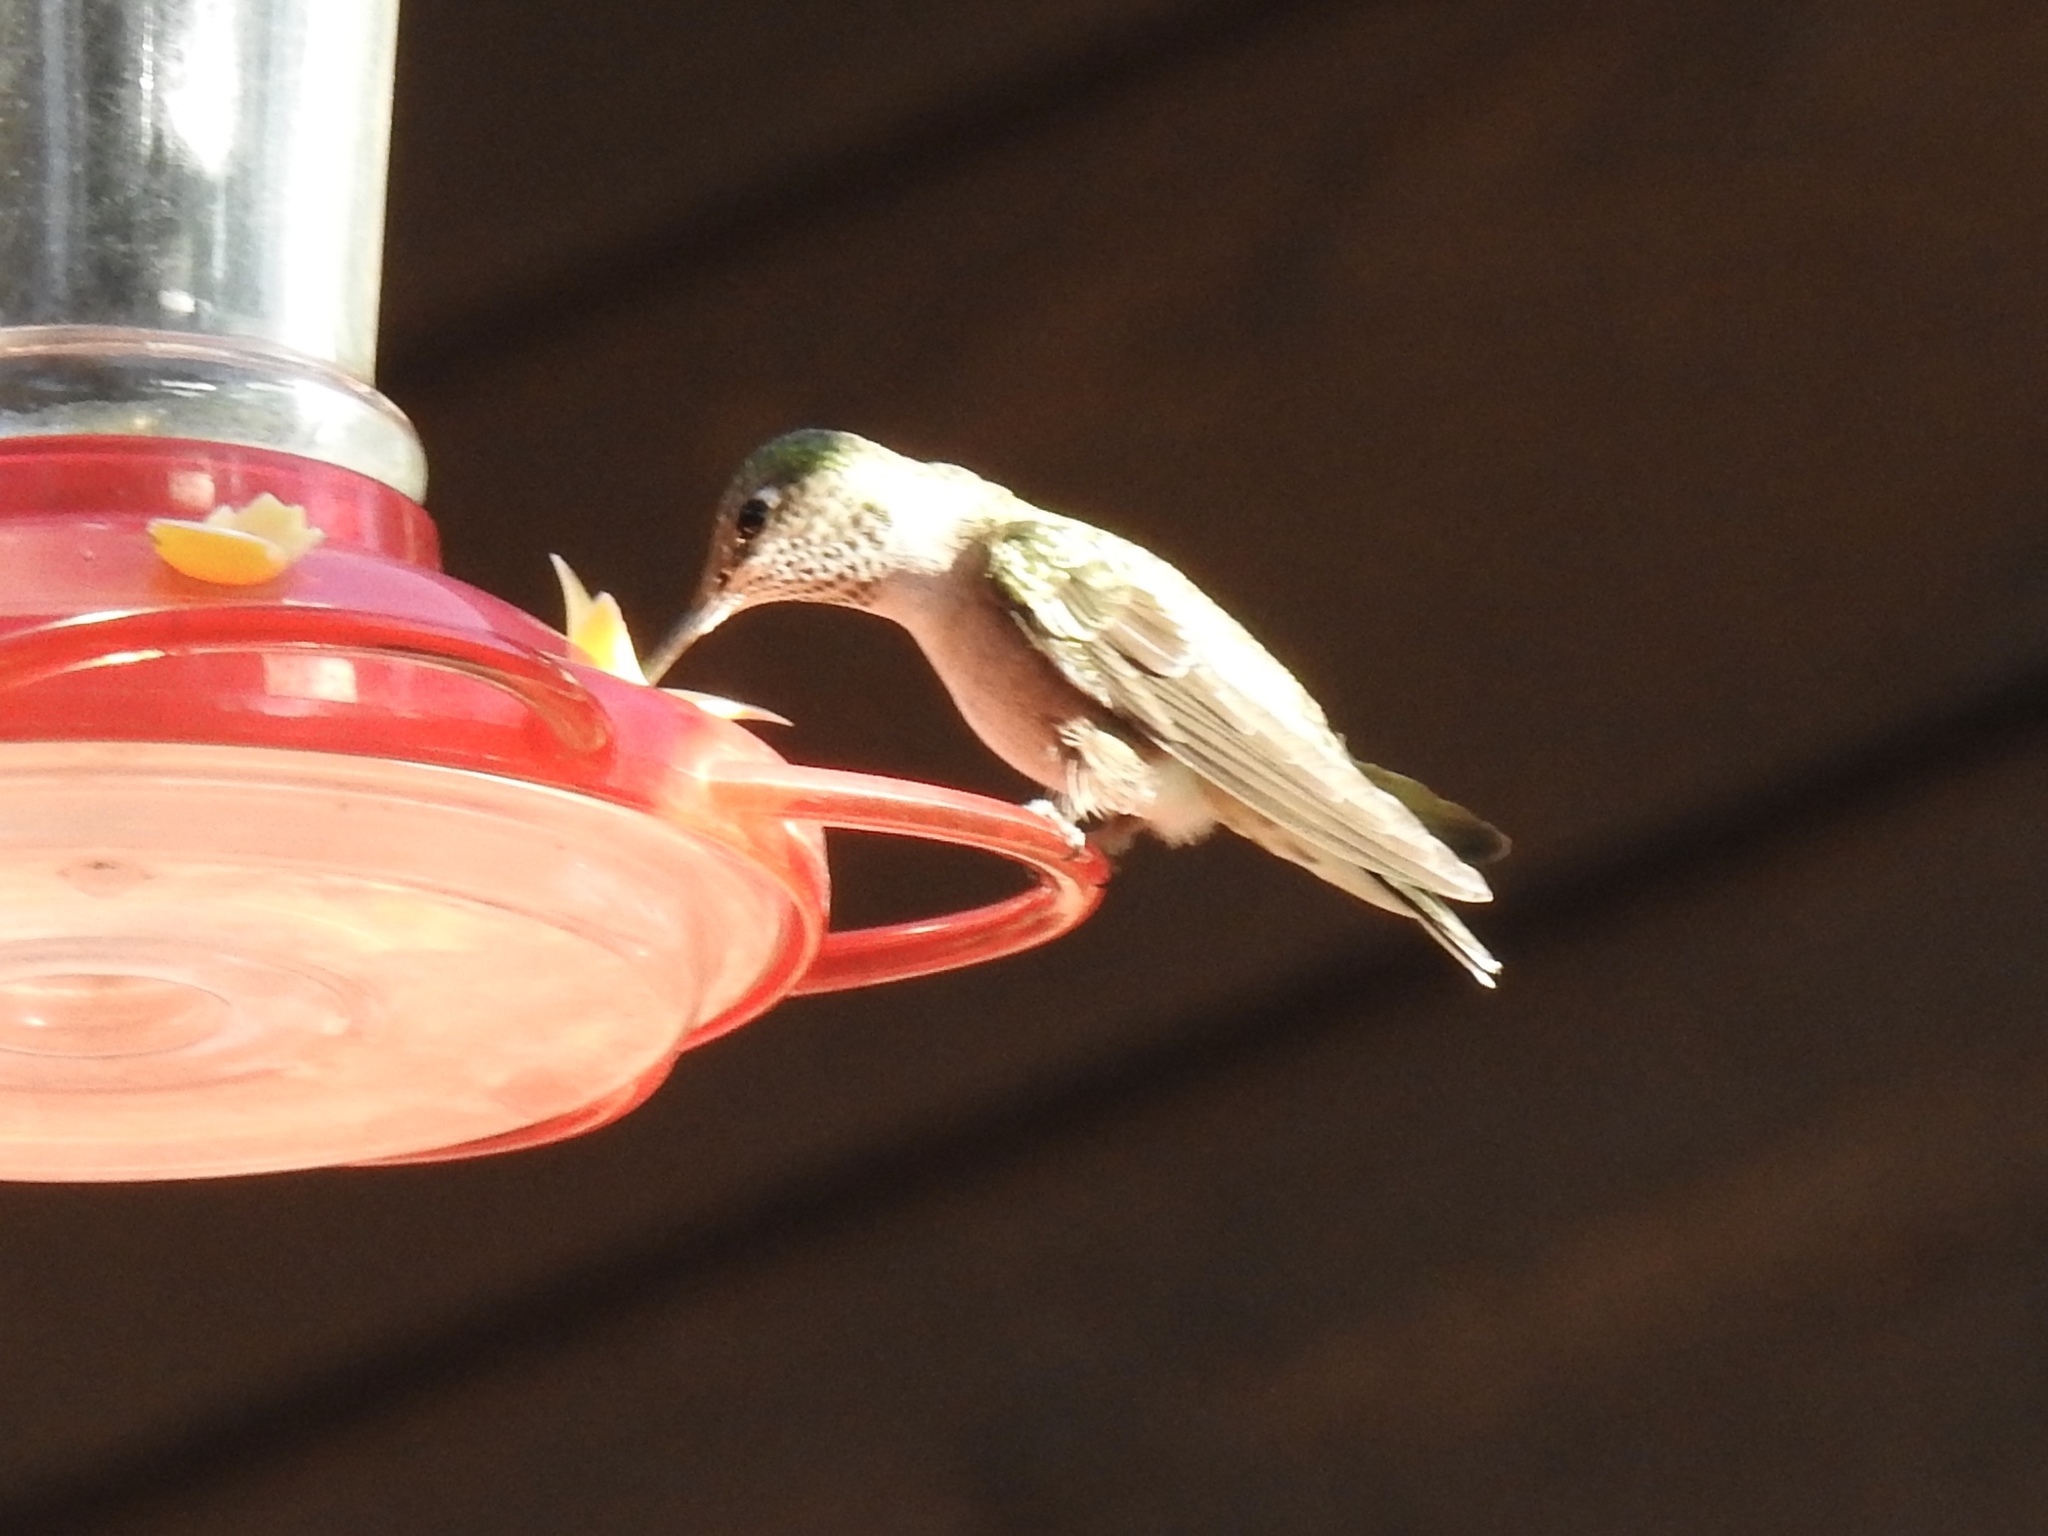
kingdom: Animalia
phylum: Chordata
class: Aves
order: Apodiformes
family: Trochilidae
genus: Selasphorus
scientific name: Selasphorus platycercus
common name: Broad-tailed hummingbird
